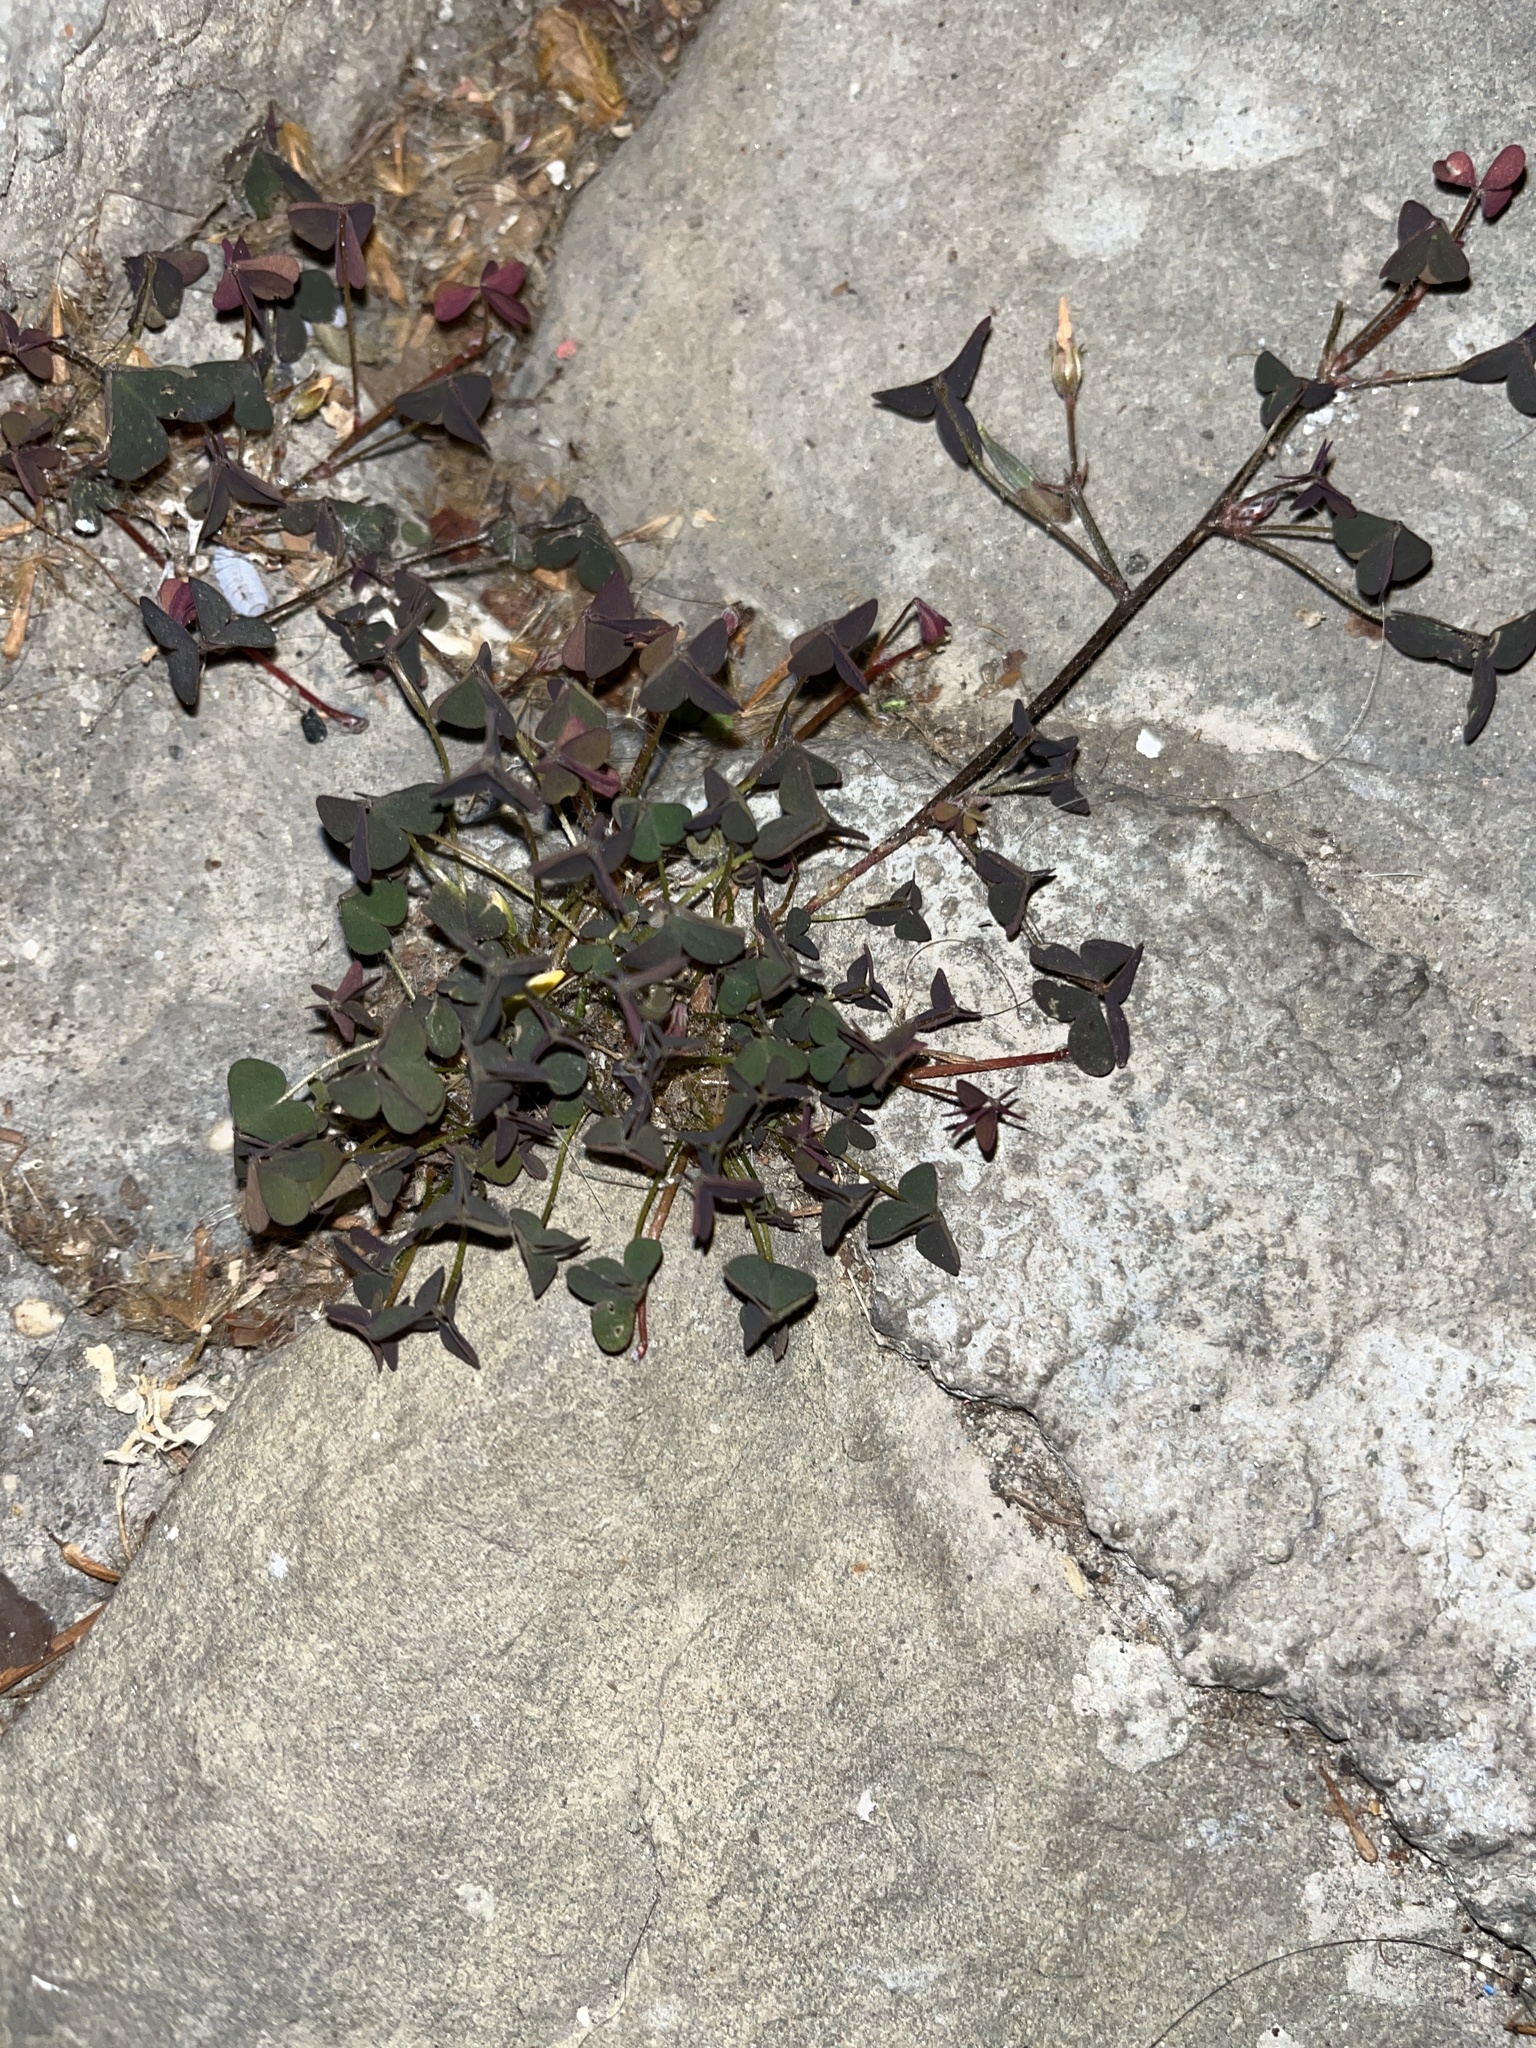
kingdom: Plantae
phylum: Tracheophyta
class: Magnoliopsida
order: Oxalidales
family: Oxalidaceae
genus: Oxalis
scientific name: Oxalis corniculata
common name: Procumbent yellow-sorrel
